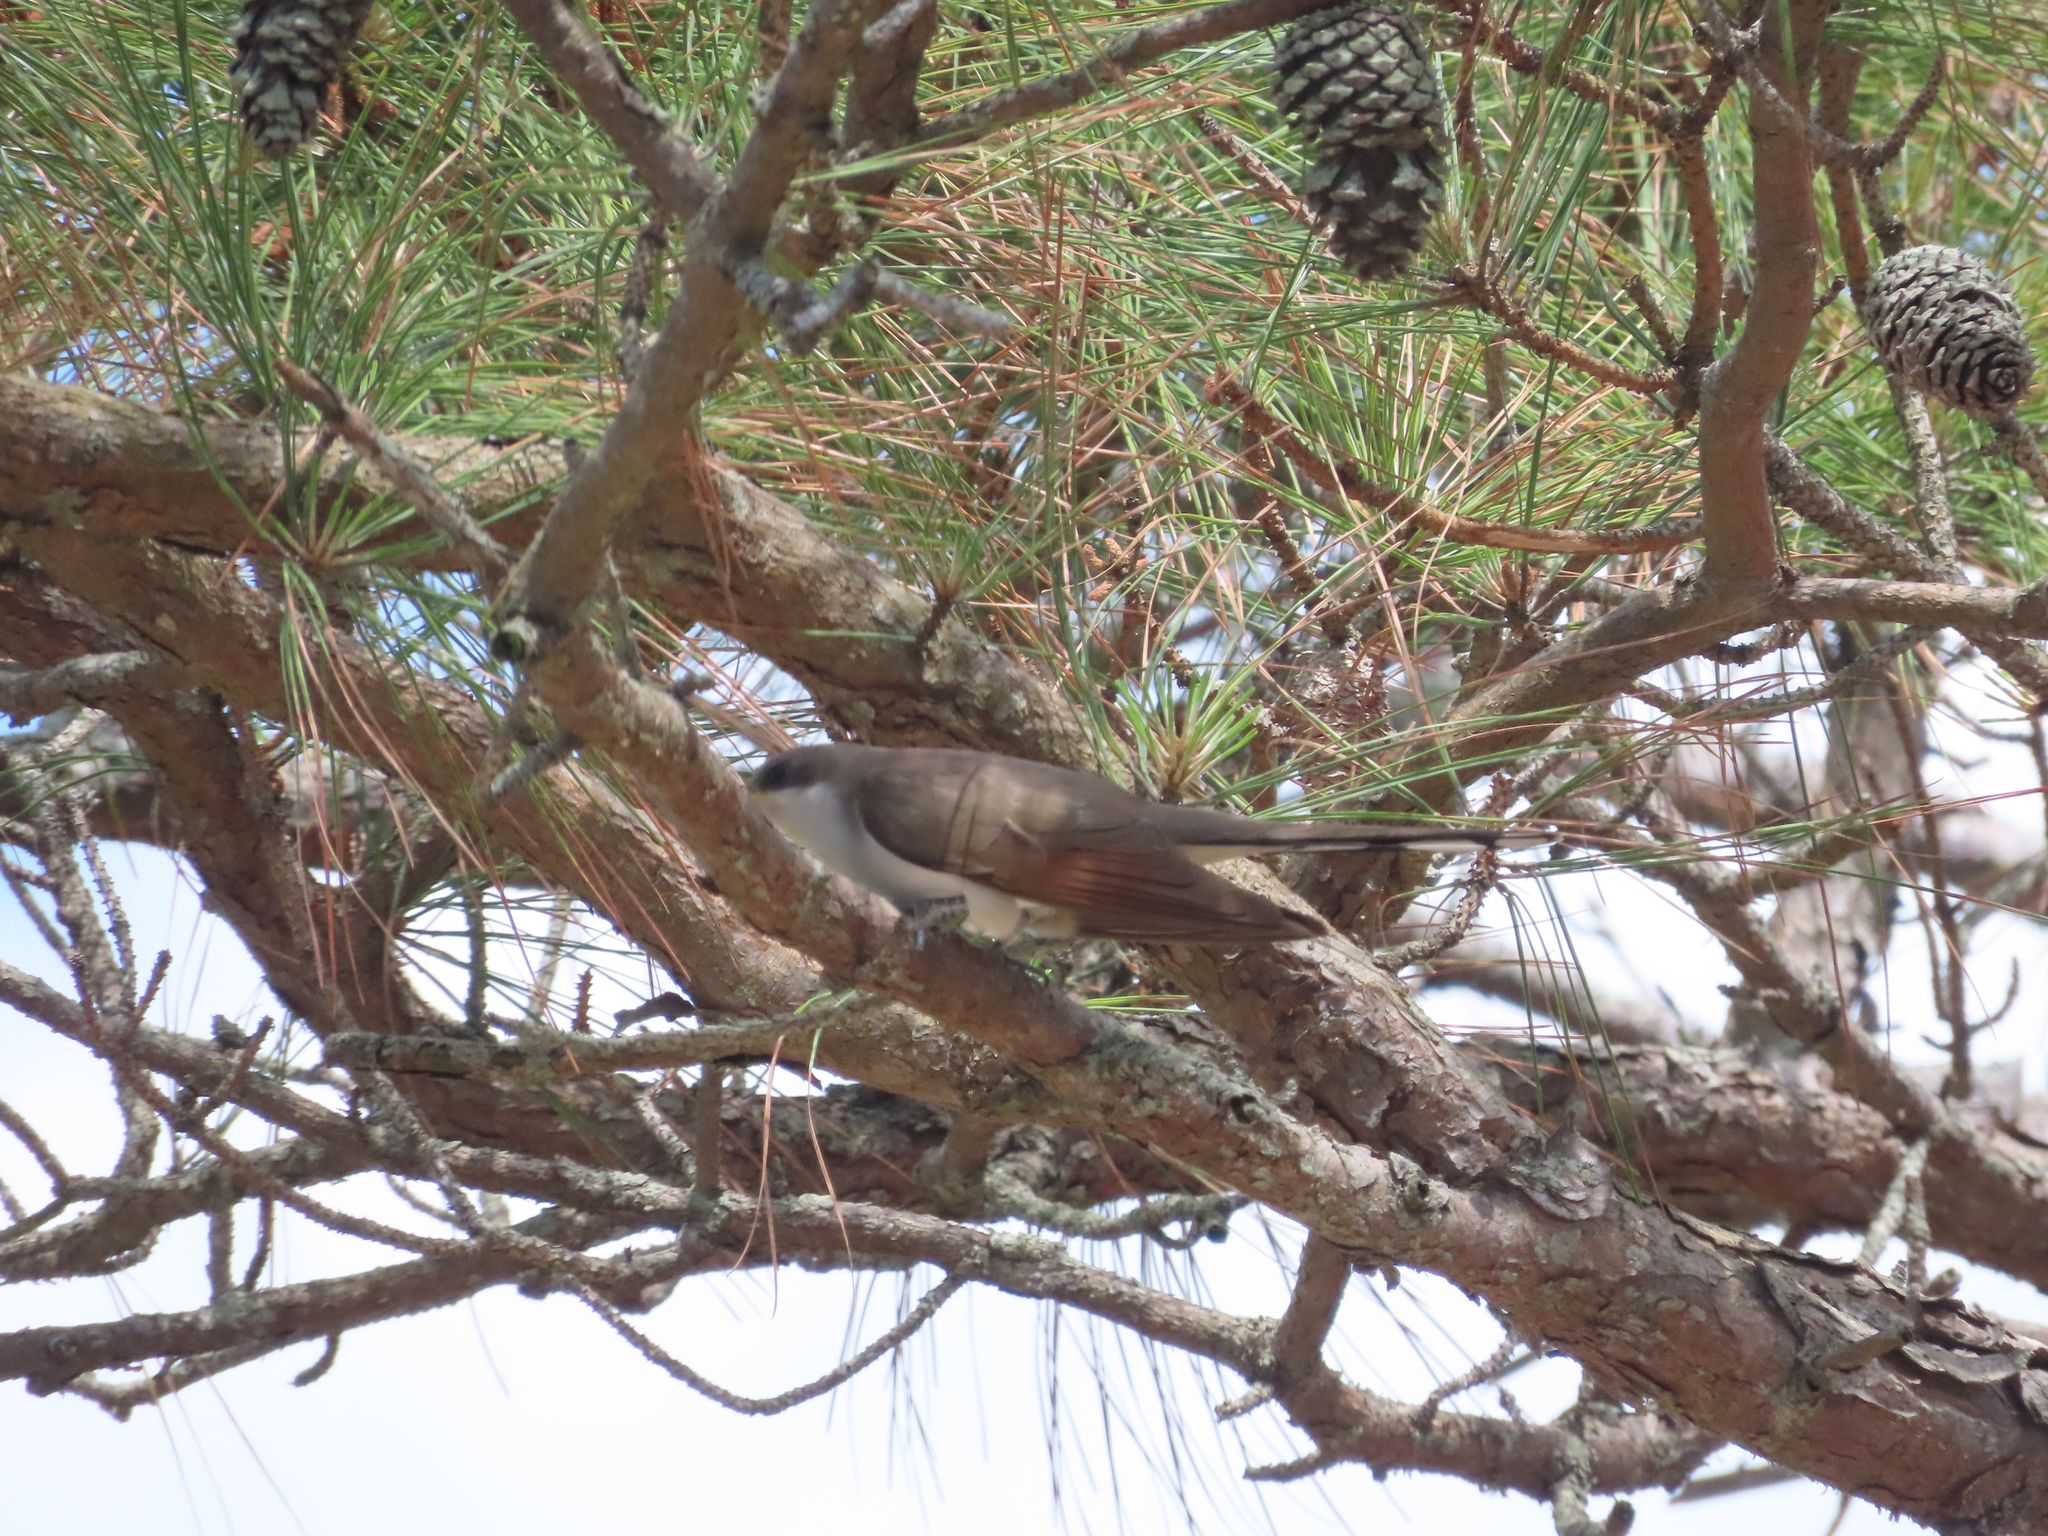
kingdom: Animalia
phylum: Chordata
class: Aves
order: Cuculiformes
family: Cuculidae
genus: Coccyzus
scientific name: Coccyzus americanus
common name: Yellow-billed cuckoo
